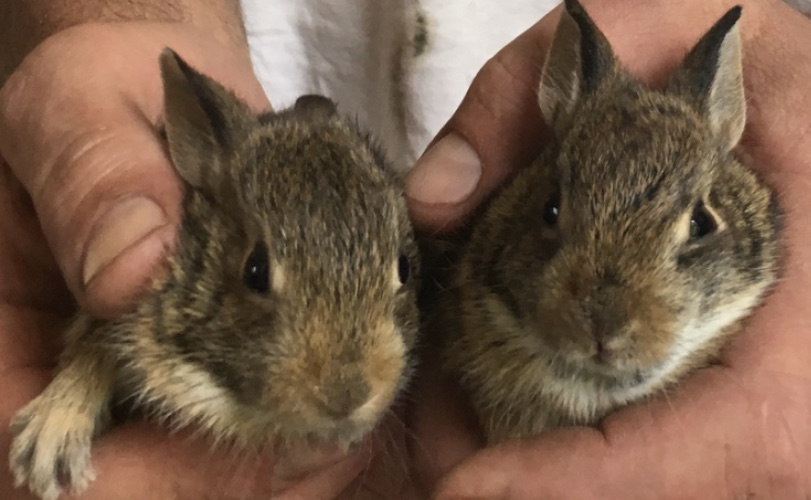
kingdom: Animalia
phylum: Chordata
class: Mammalia
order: Lagomorpha
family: Leporidae
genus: Sylvilagus
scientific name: Sylvilagus floridanus
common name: Eastern cottontail
